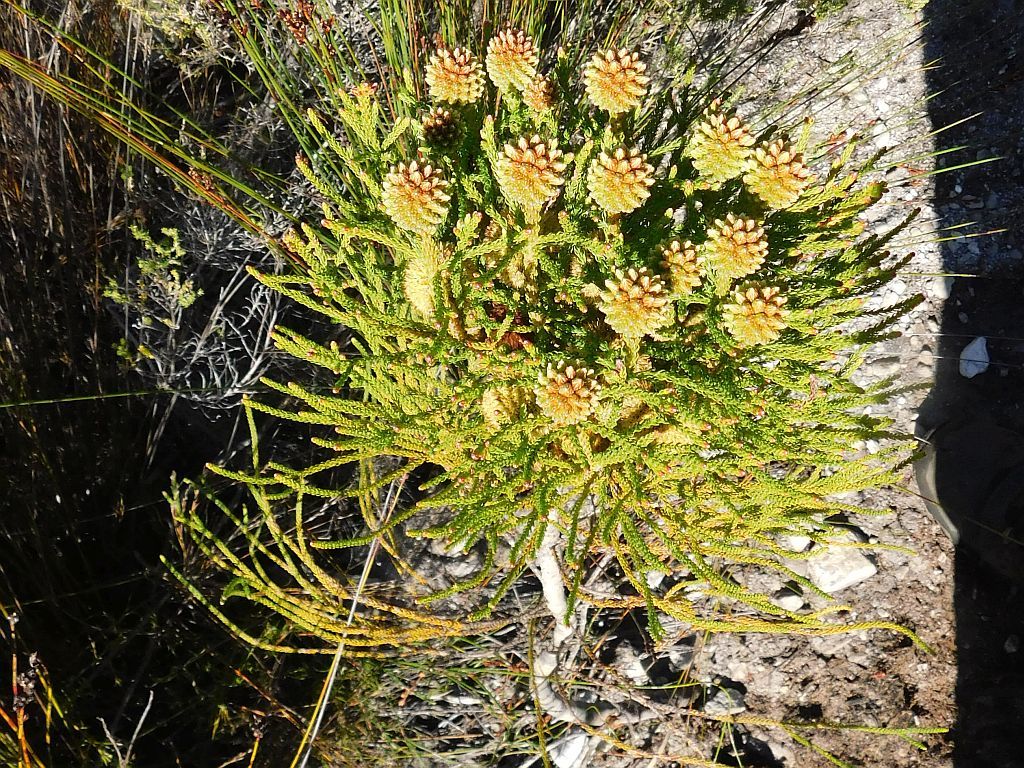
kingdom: Plantae
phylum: Tracheophyta
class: Magnoliopsida
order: Bruniales
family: Bruniaceae
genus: Brunia
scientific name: Brunia fragarioides
